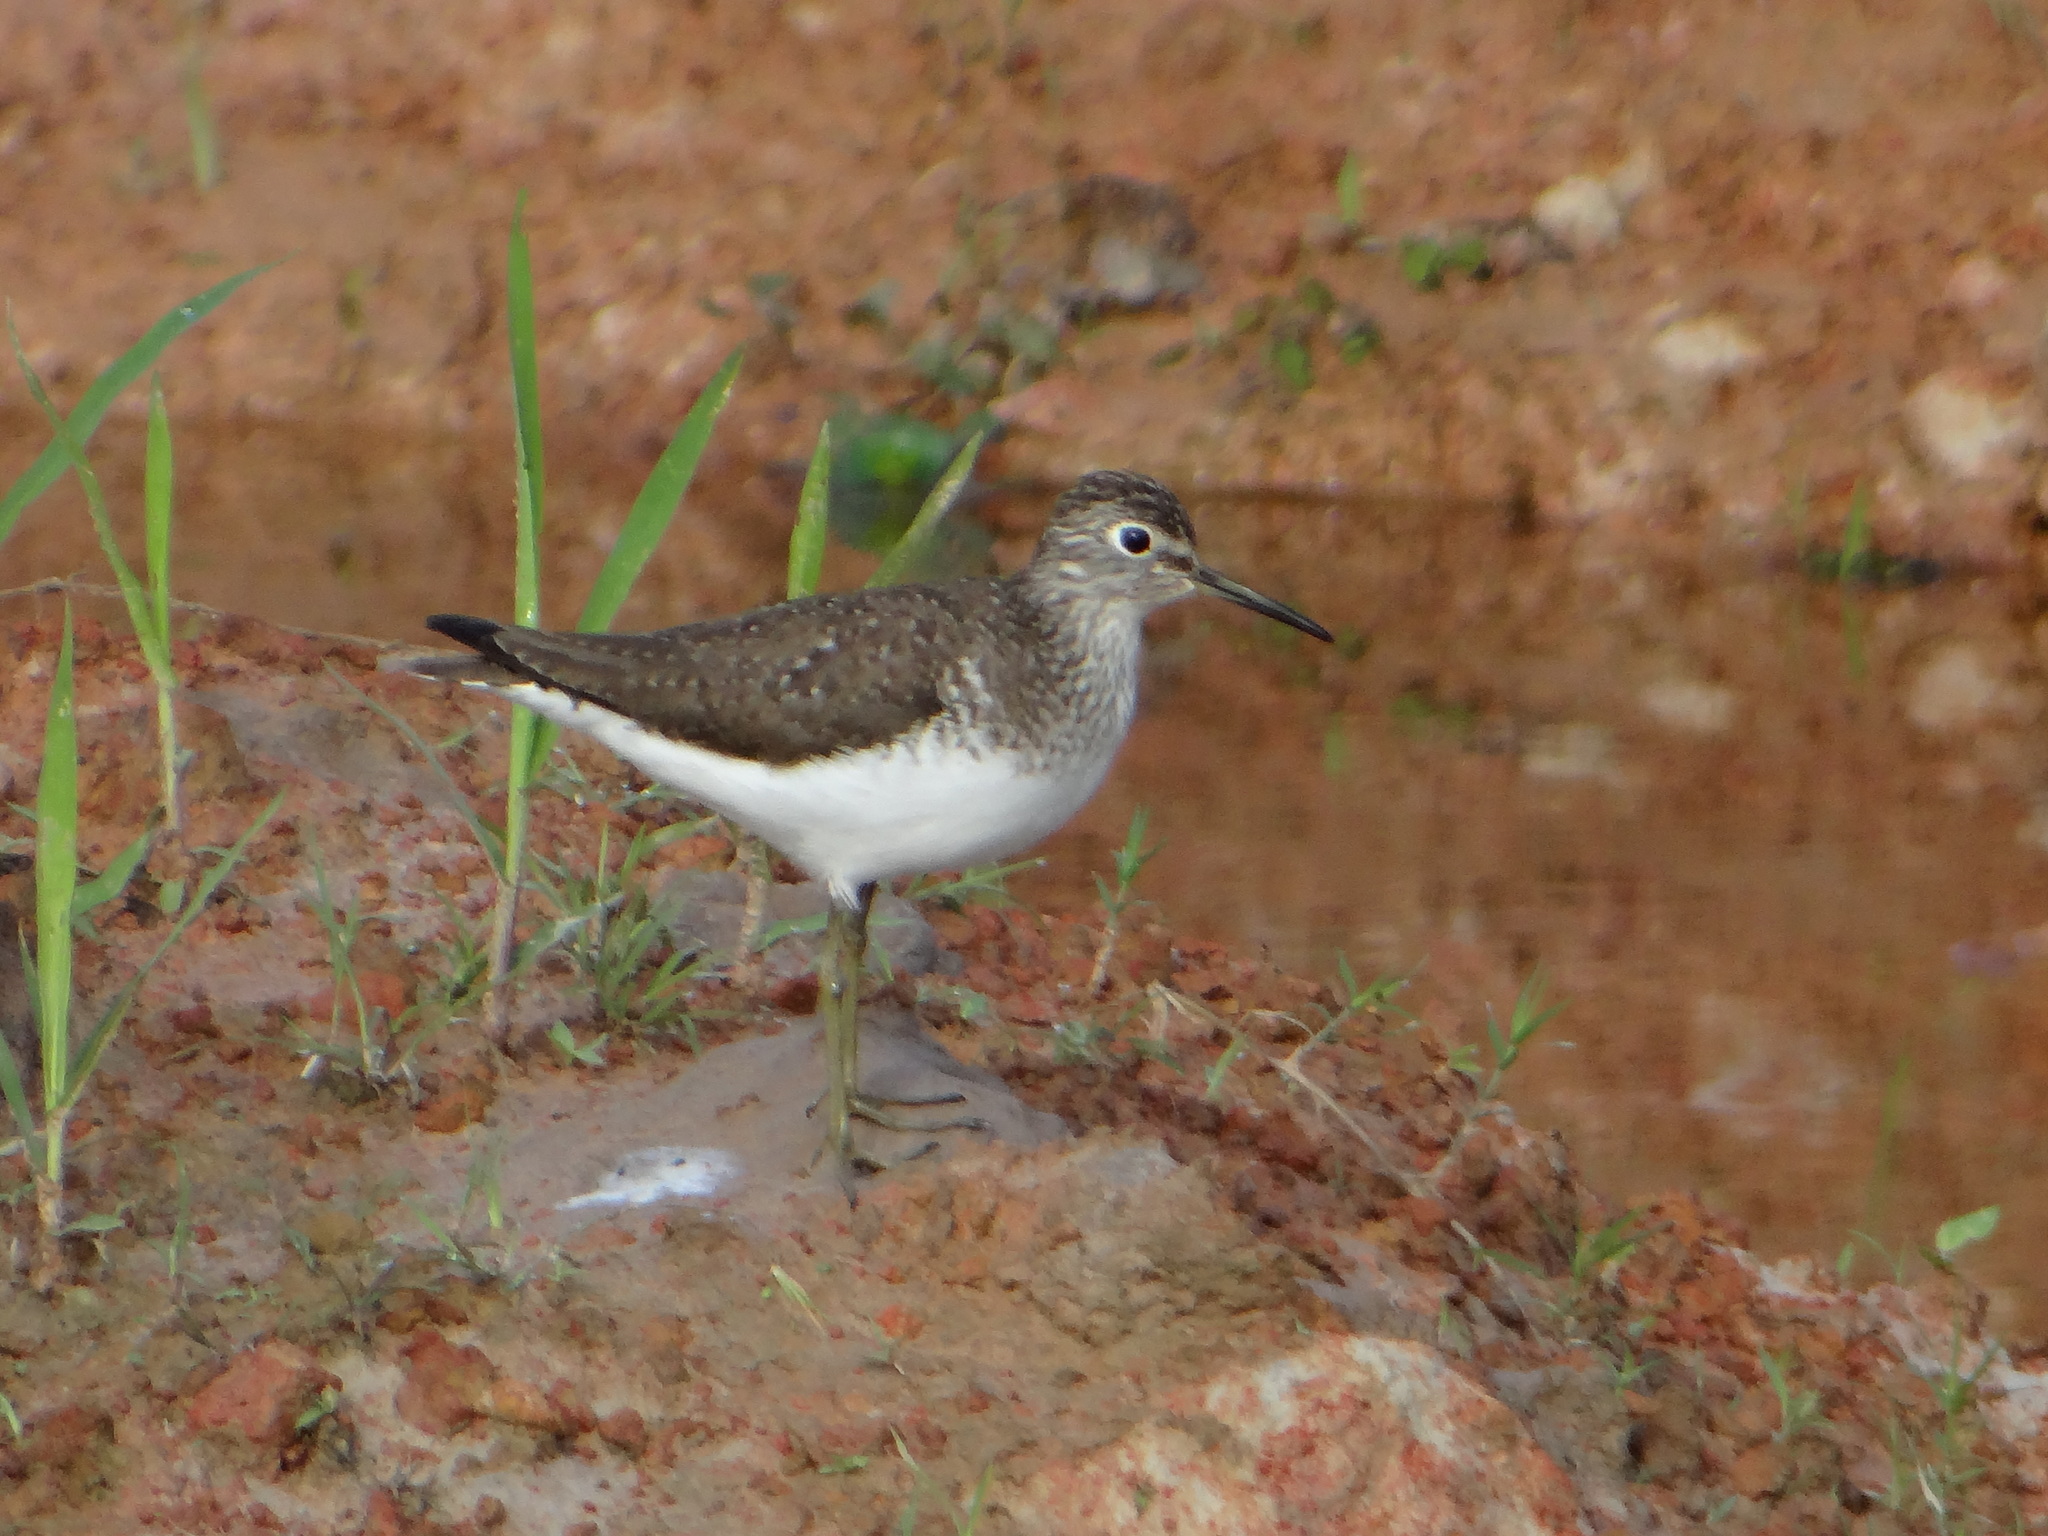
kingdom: Animalia
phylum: Chordata
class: Aves
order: Charadriiformes
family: Scolopacidae
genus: Tringa
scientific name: Tringa solitaria
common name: Solitary sandpiper
